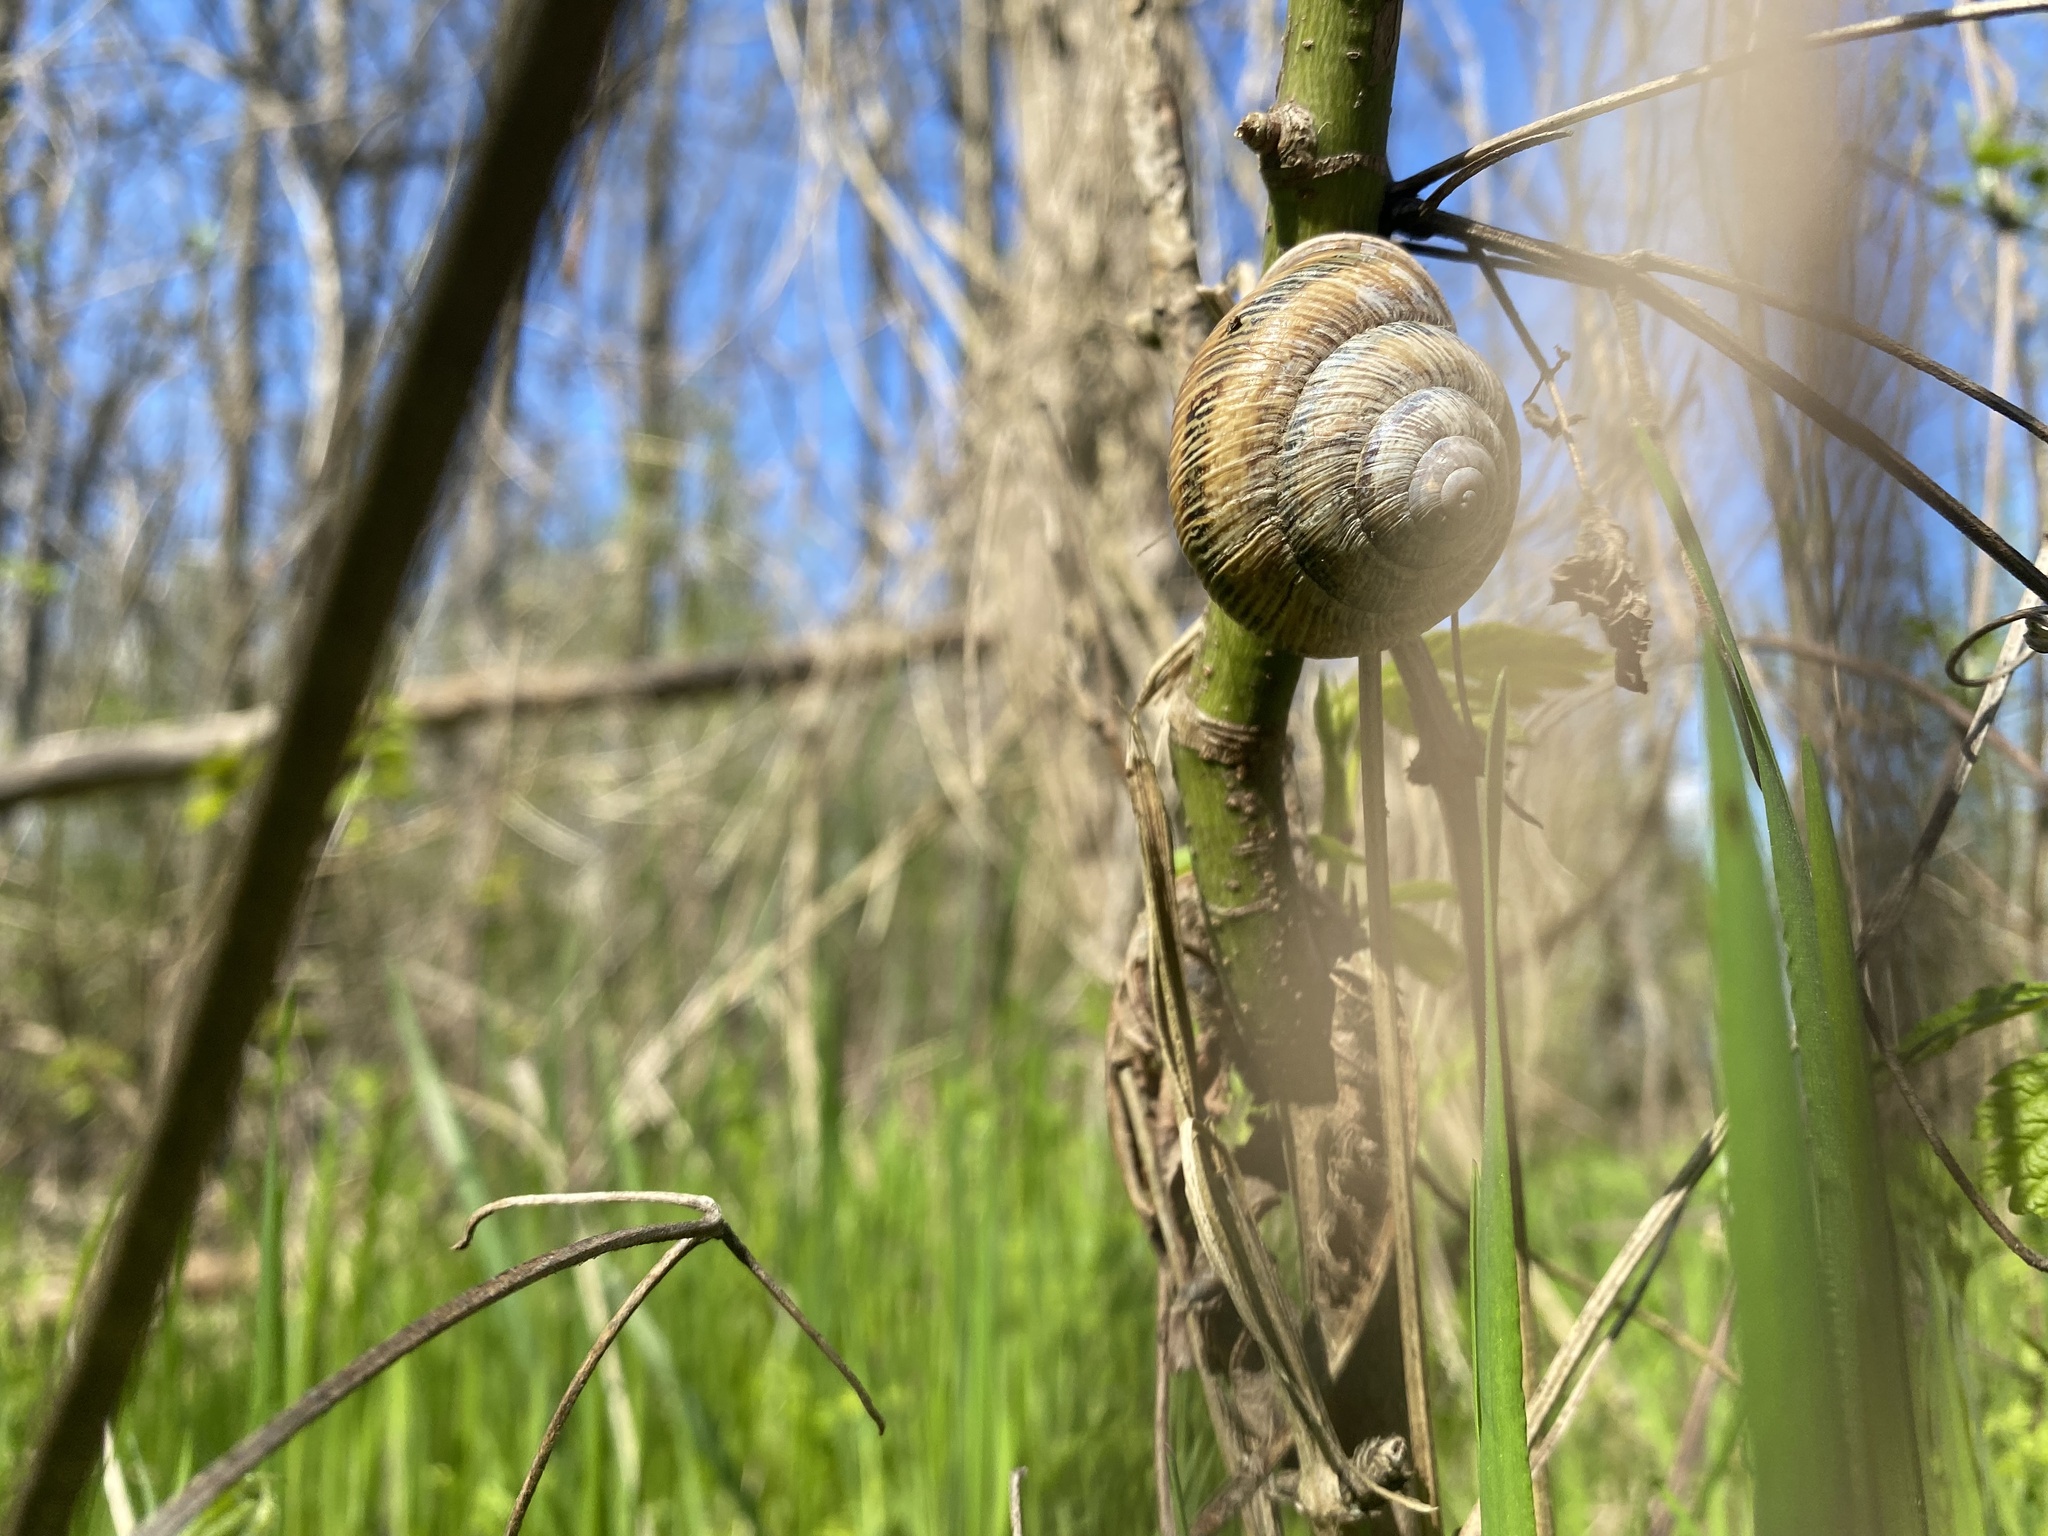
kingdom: Animalia
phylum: Mollusca
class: Gastropoda
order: Stylommatophora
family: Helicidae
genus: Caucasotachea
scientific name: Caucasotachea atrolabiata
